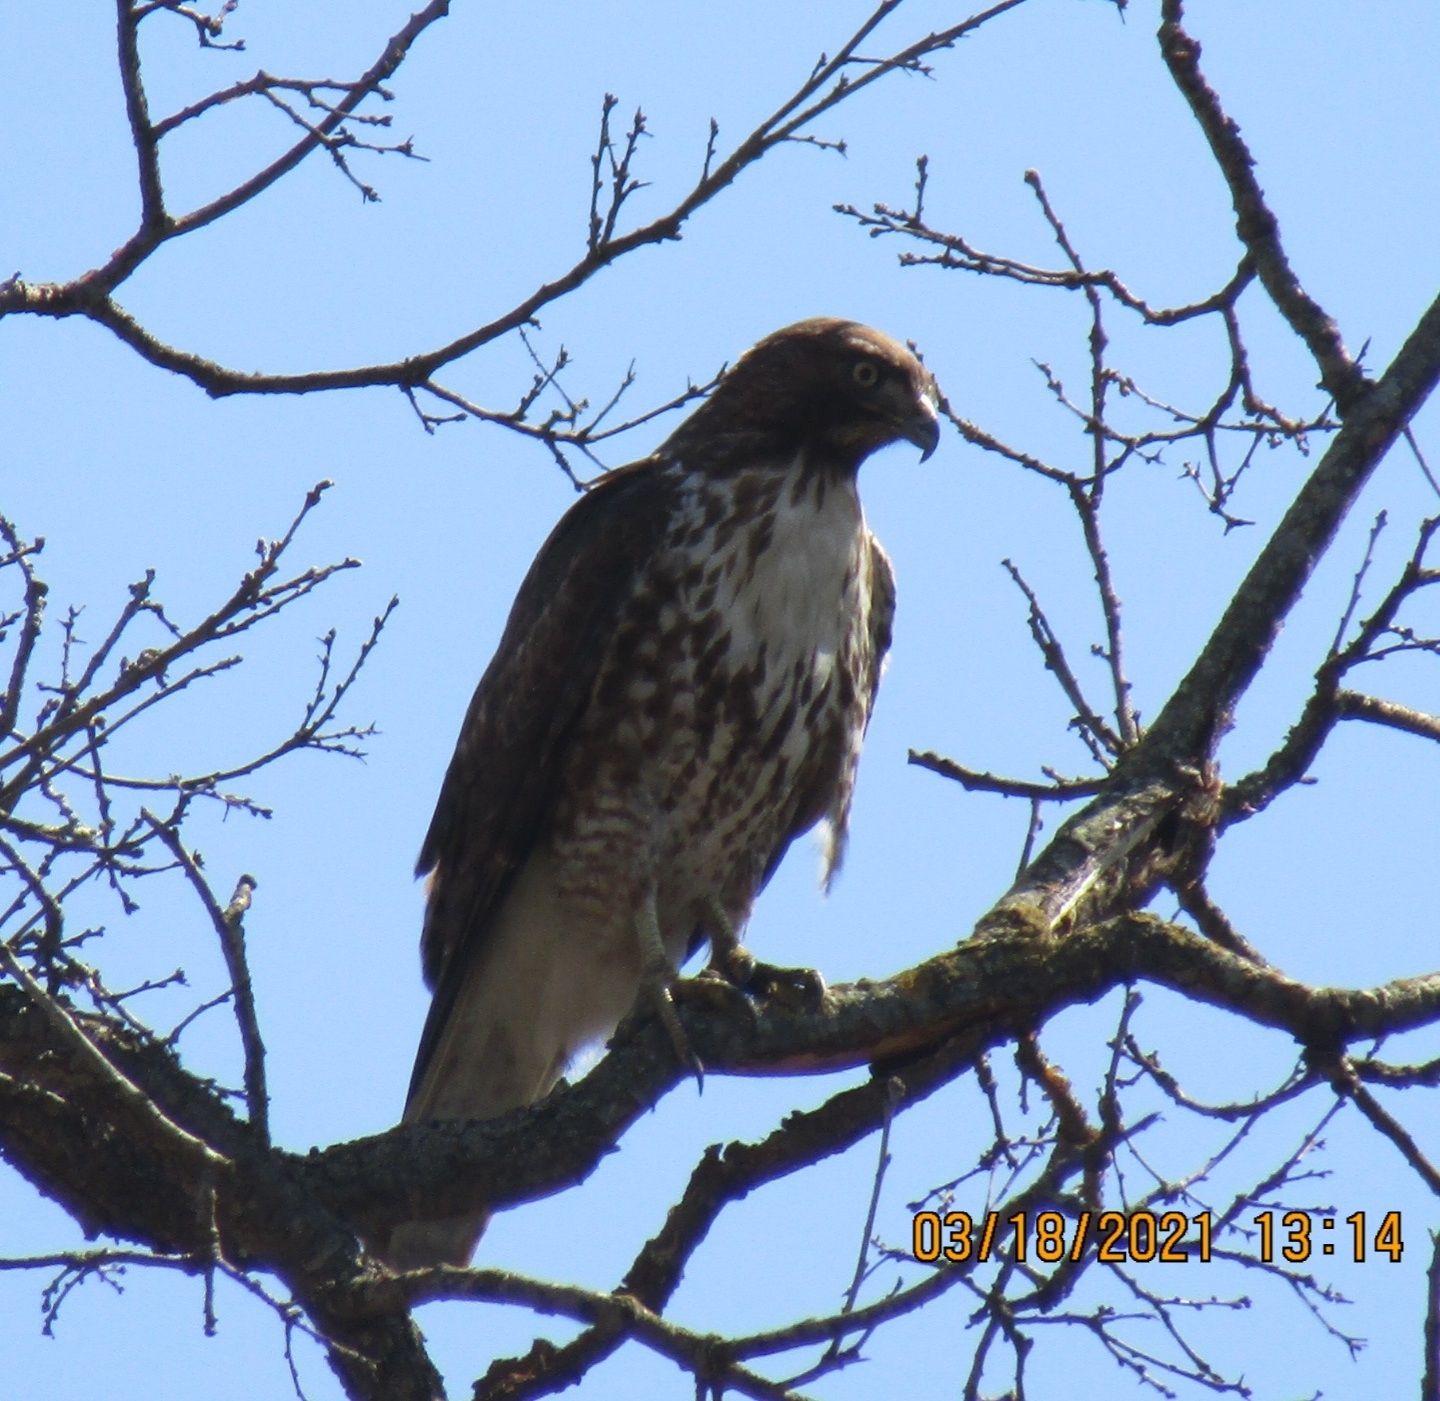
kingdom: Animalia
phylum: Chordata
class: Aves
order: Accipitriformes
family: Accipitridae
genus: Buteo
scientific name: Buteo jamaicensis
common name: Red-tailed hawk
